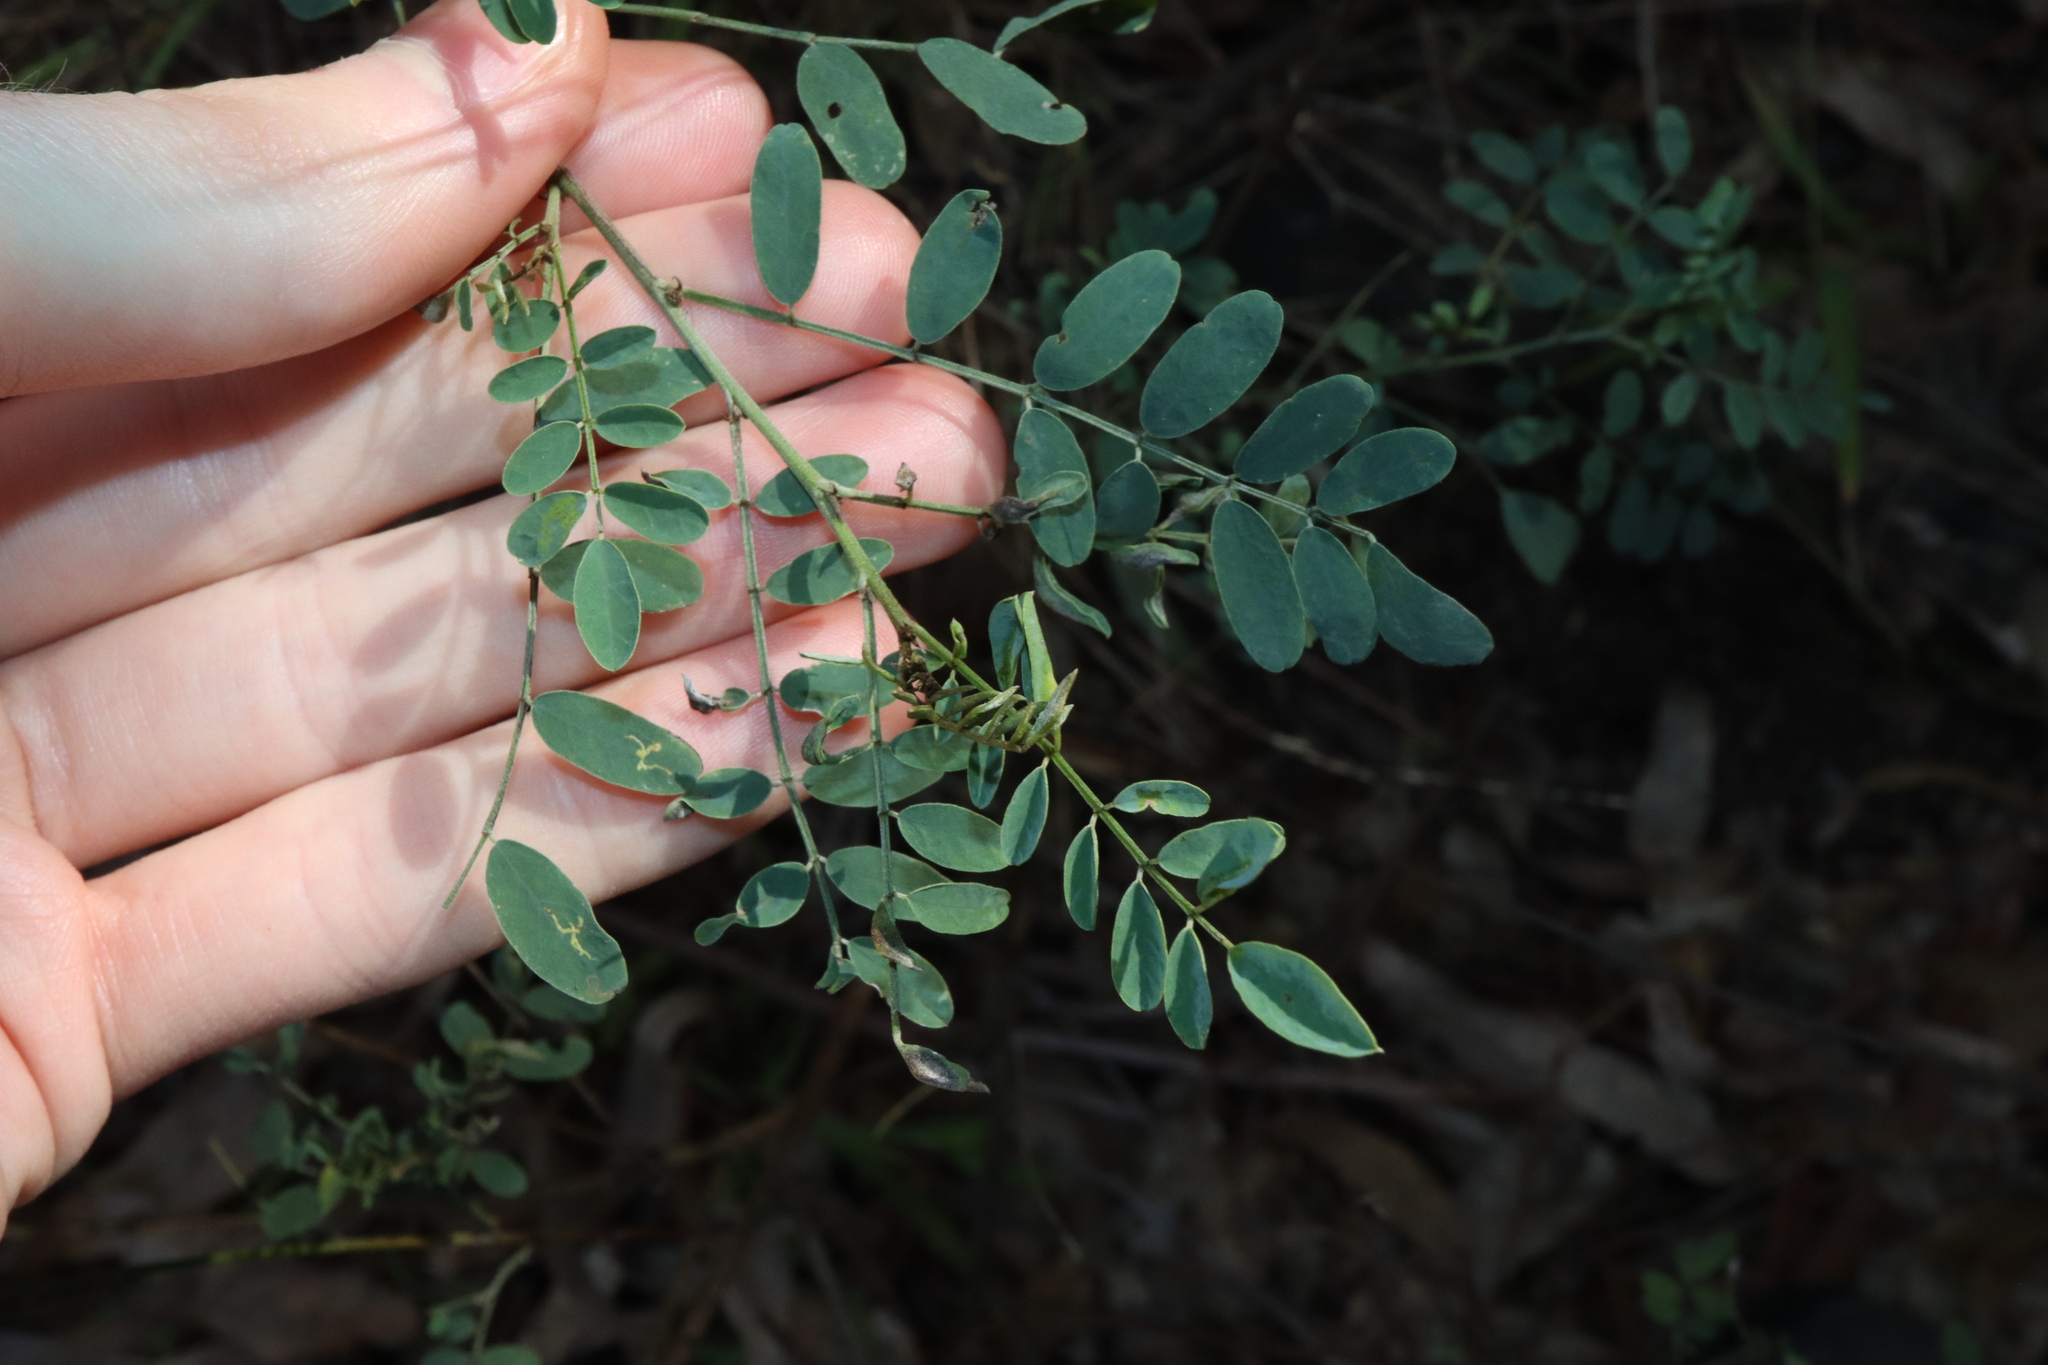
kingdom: Plantae
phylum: Tracheophyta
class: Magnoliopsida
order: Fabales
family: Fabaceae
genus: Indigofera
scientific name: Indigofera australis
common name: Australian indigo
